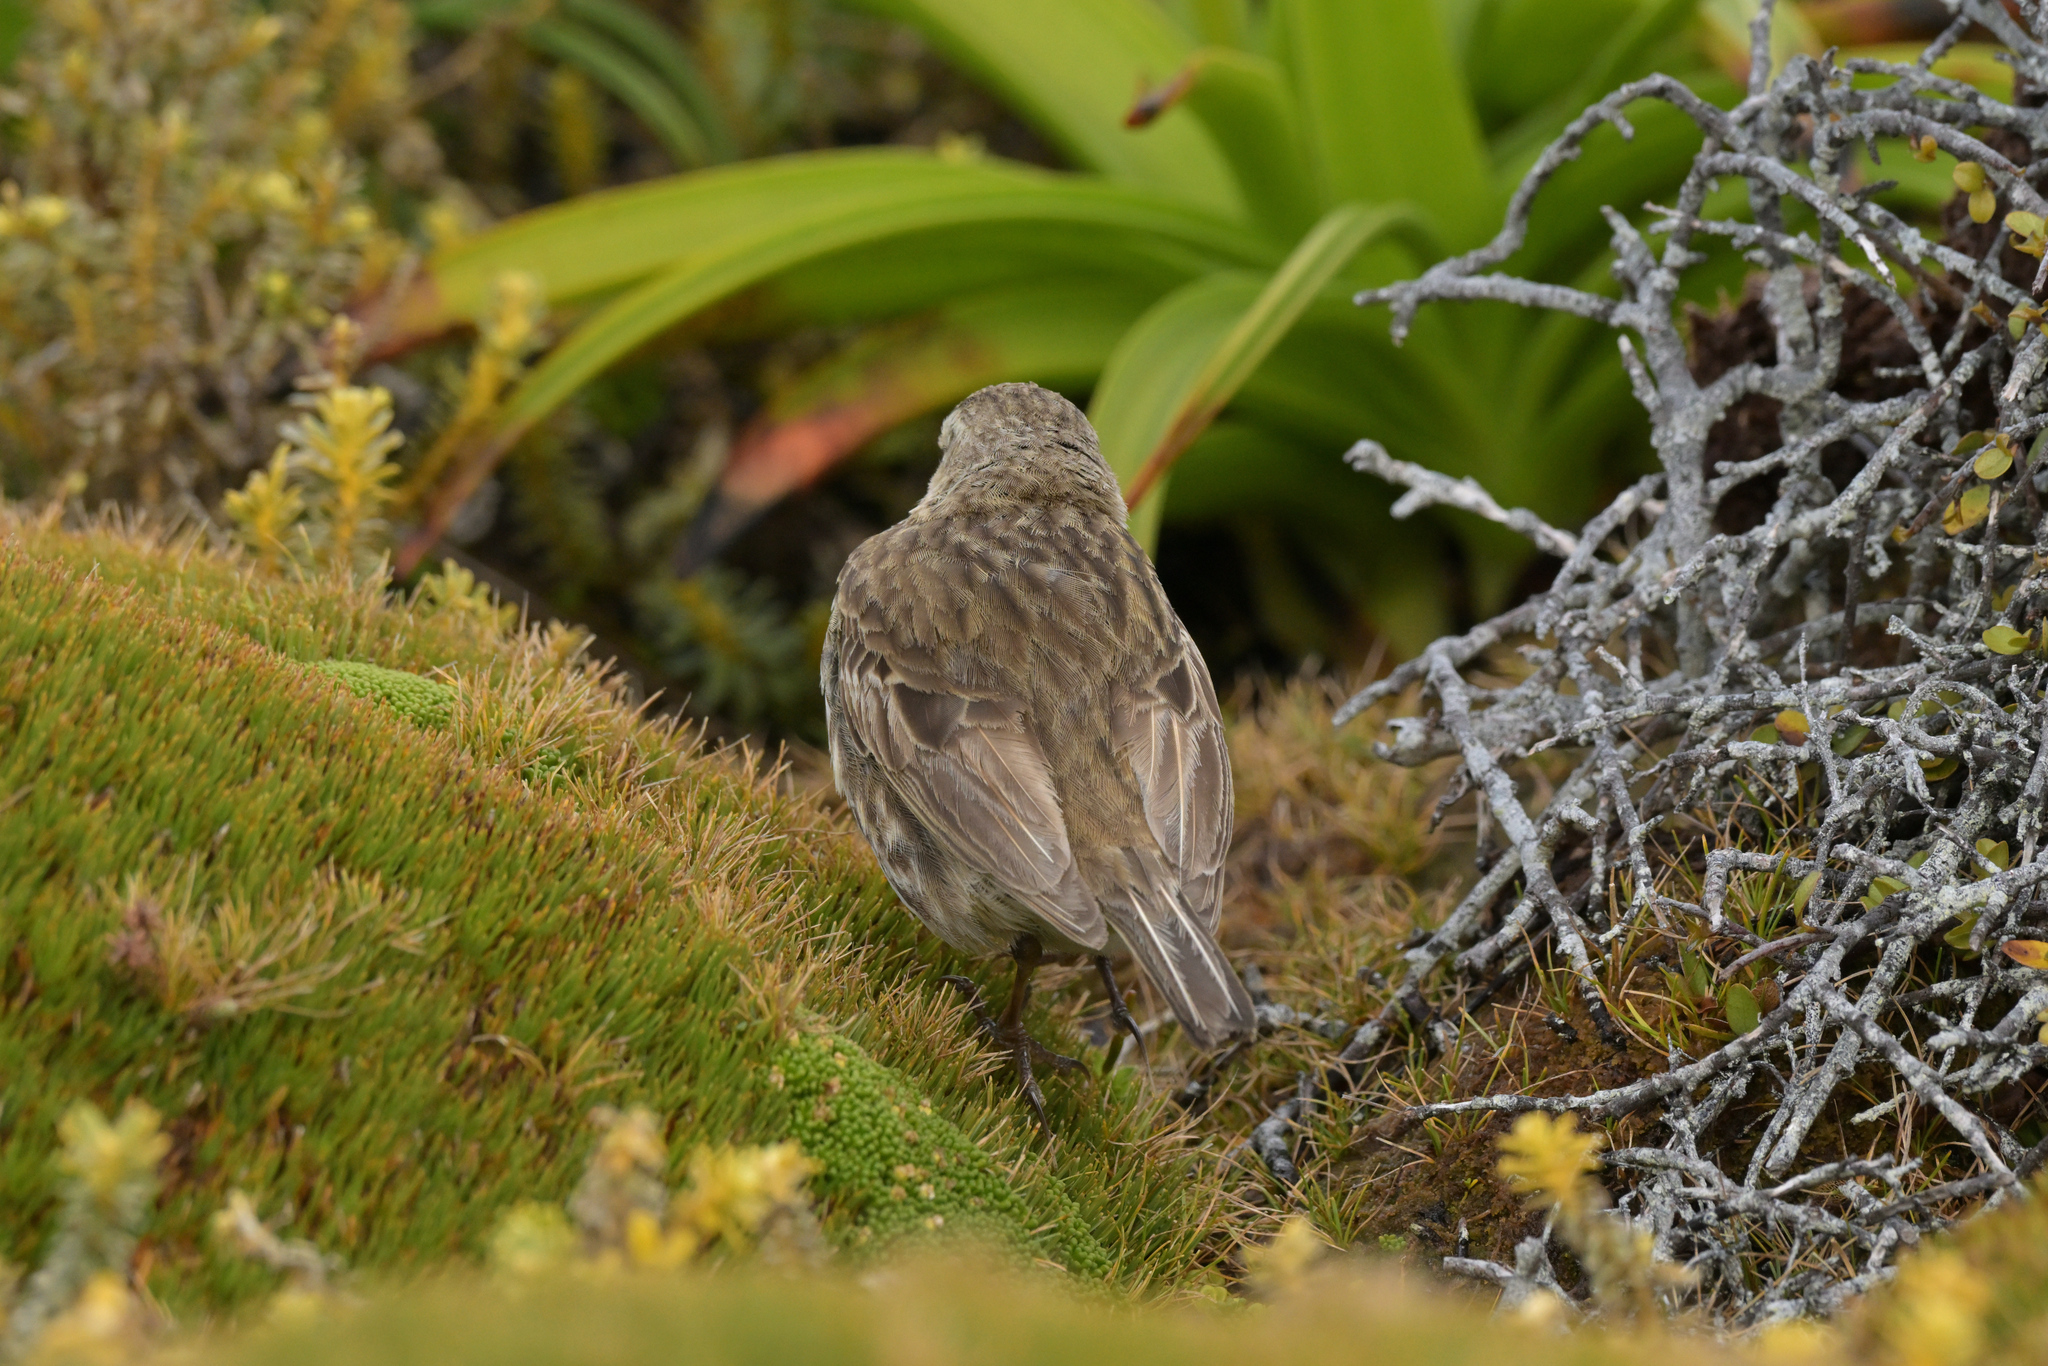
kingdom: Animalia
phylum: Chordata
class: Aves
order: Passeriformes
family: Motacillidae
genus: Anthus
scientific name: Anthus novaeseelandiae
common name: New zealand pipit
